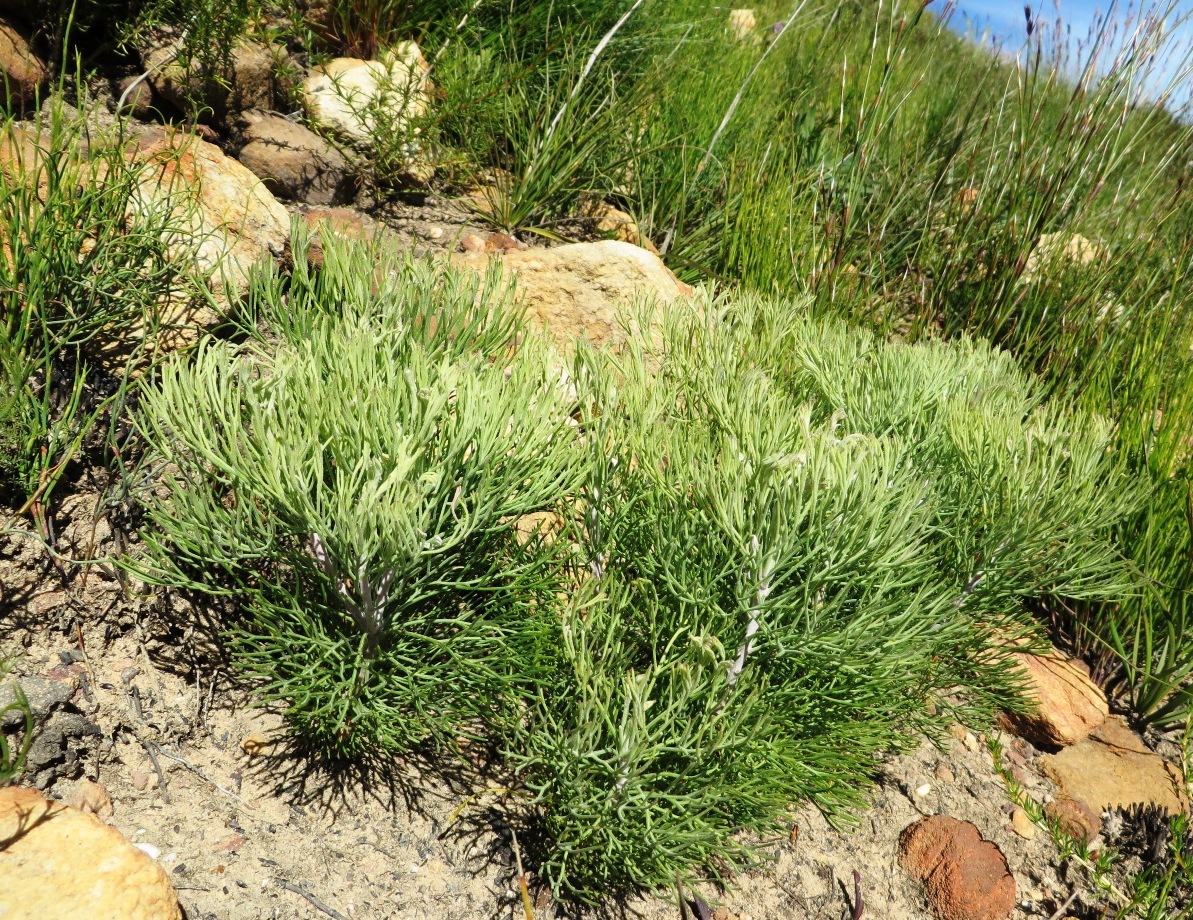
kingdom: Plantae
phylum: Tracheophyta
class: Magnoliopsida
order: Proteales
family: Proteaceae
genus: Paranomus
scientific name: Paranomus spicatus
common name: Kogelberg sceptre
